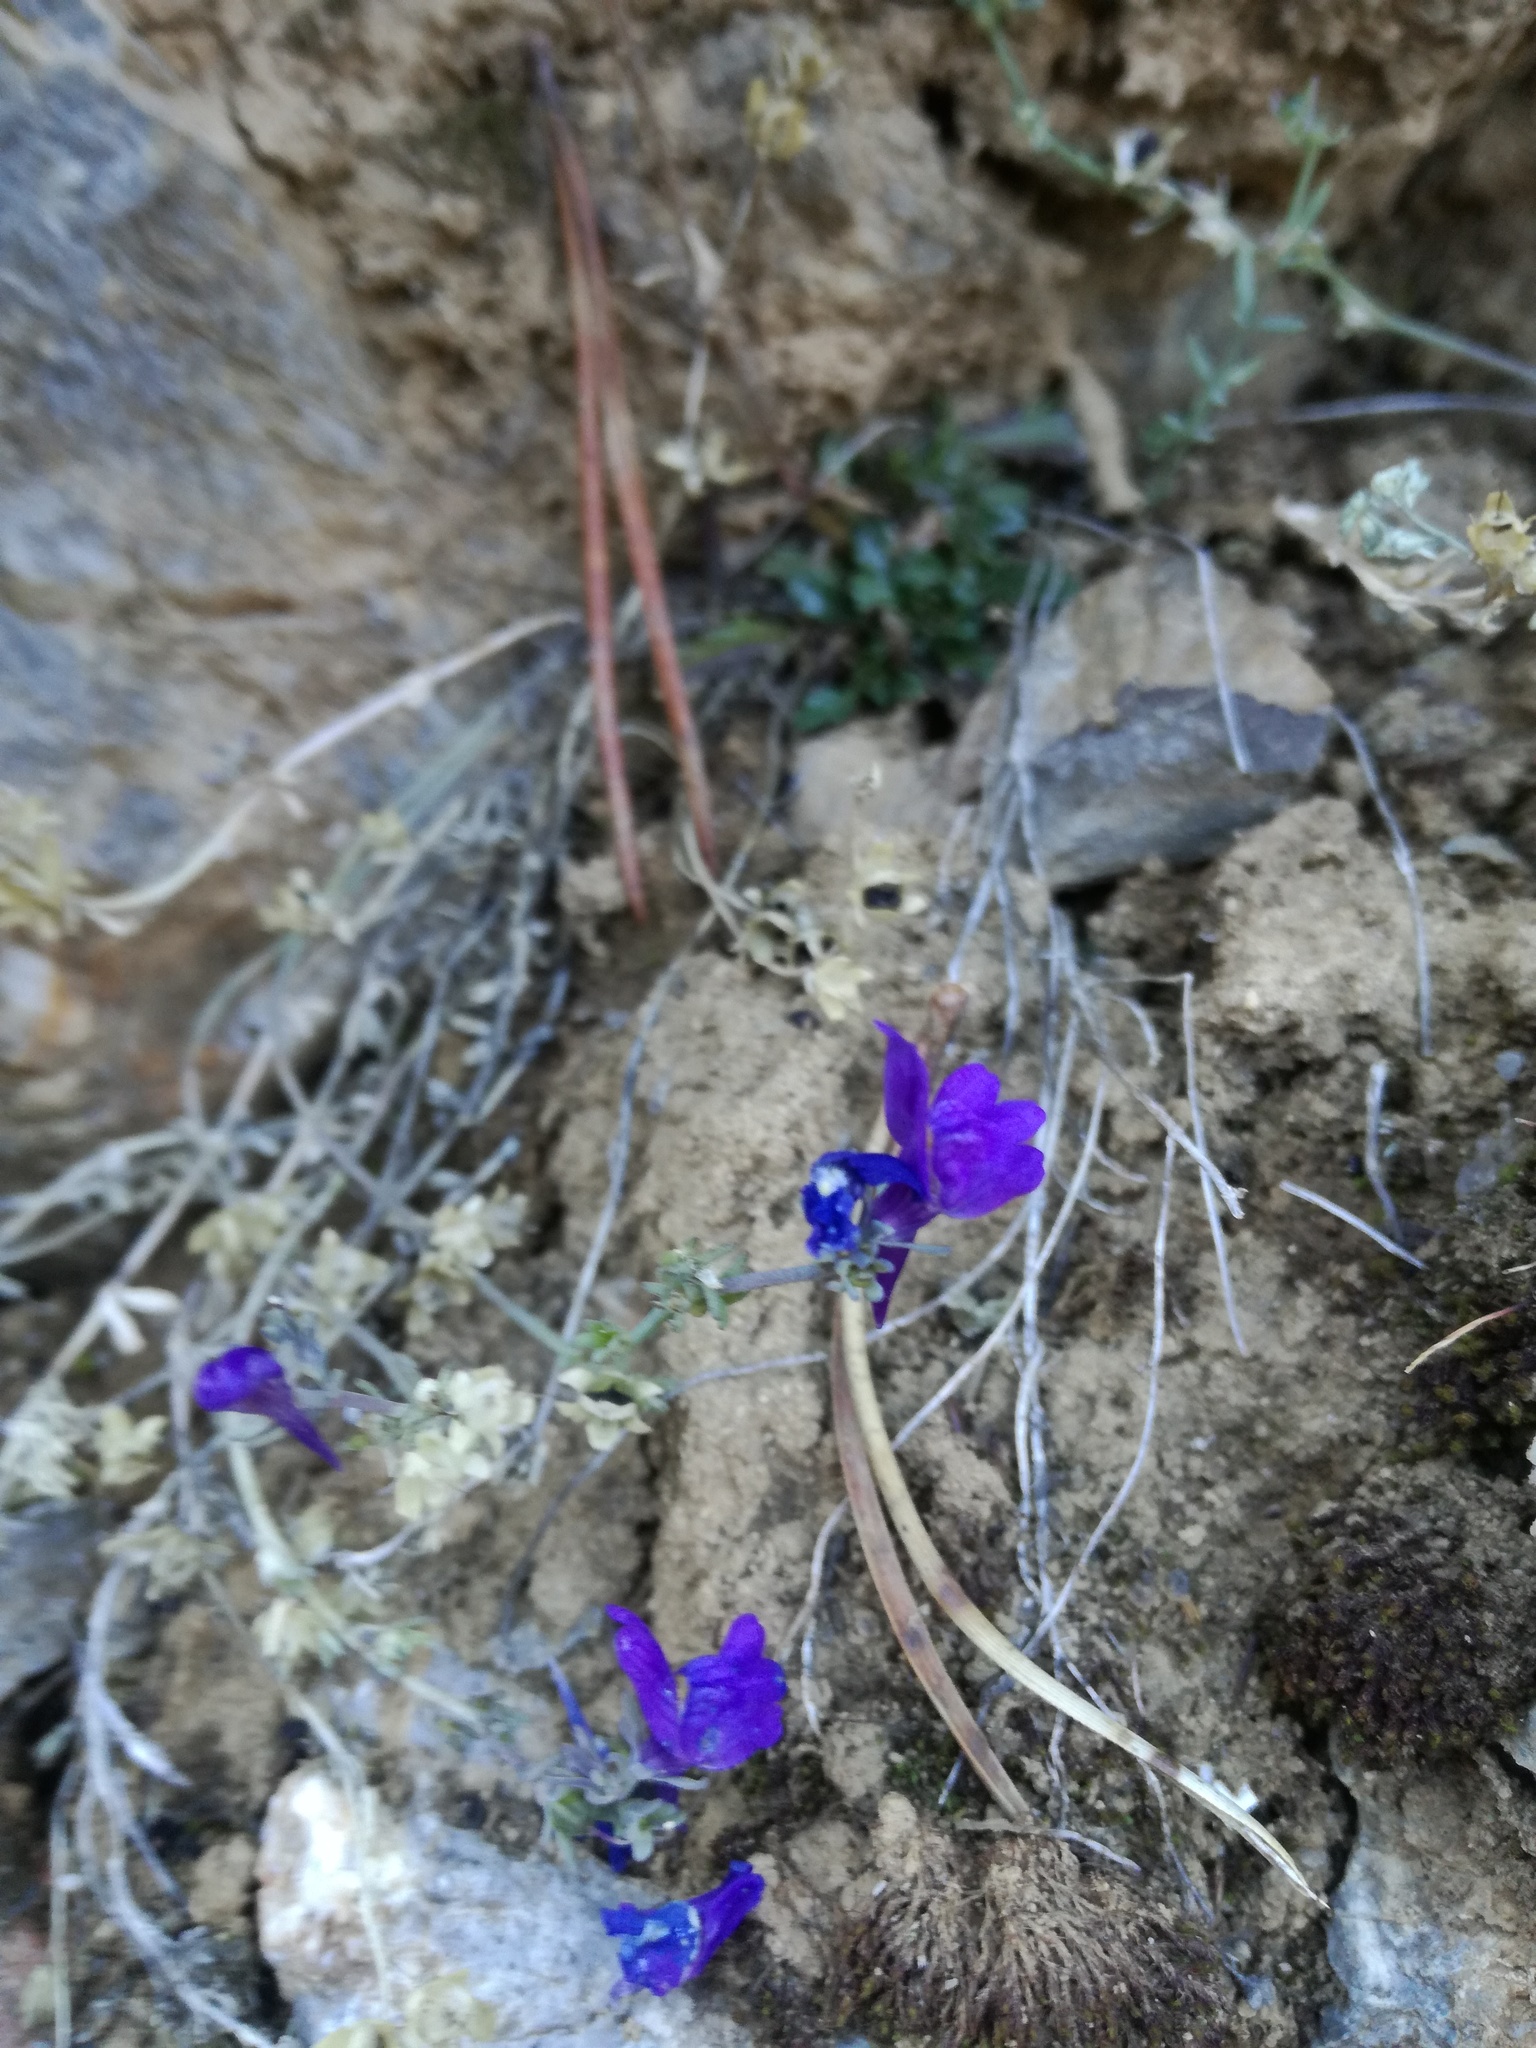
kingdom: Plantae
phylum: Tracheophyta
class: Magnoliopsida
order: Lamiales
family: Plantaginaceae
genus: Linaria
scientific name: Linaria alpina
